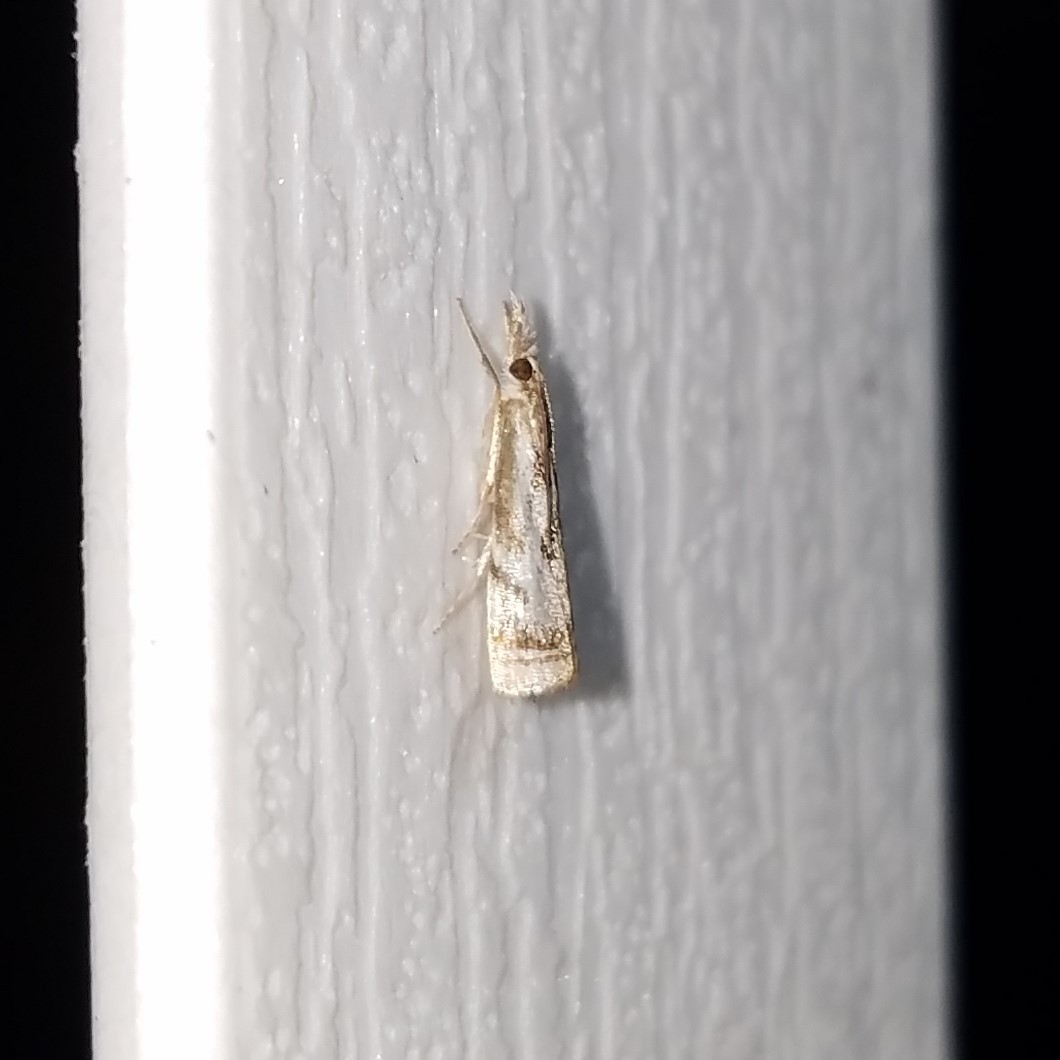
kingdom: Animalia
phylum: Arthropoda
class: Insecta
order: Lepidoptera
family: Crambidae
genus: Microcrambus
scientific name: Microcrambus elegans
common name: Elegant grass-veneer
